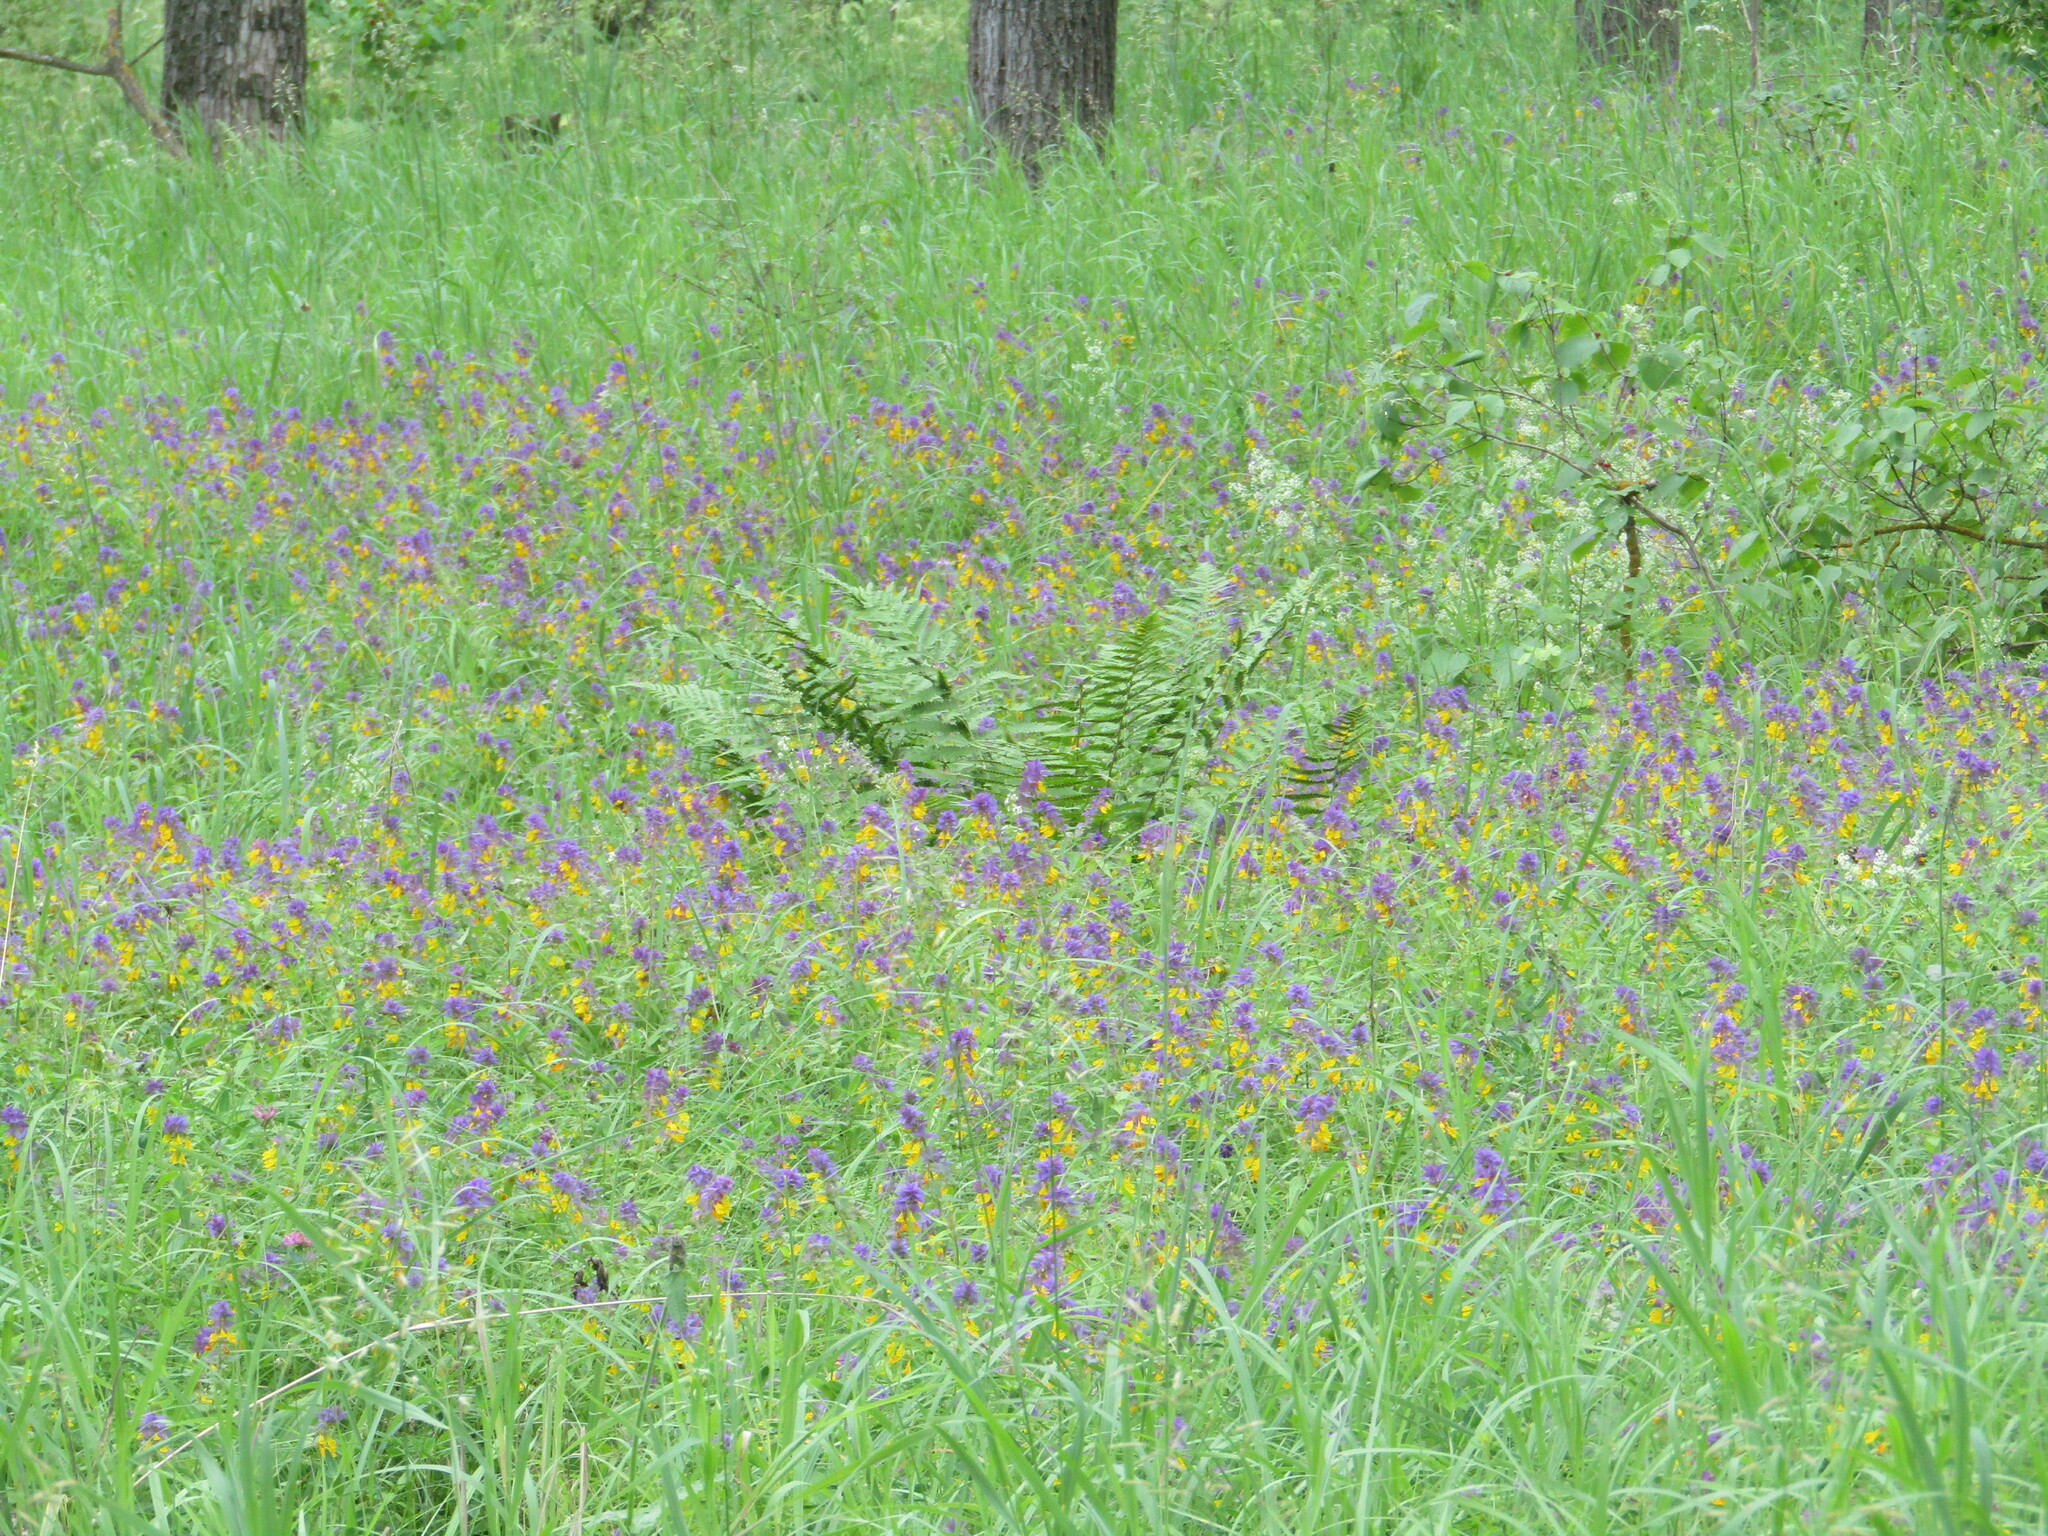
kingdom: Plantae
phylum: Tracheophyta
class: Magnoliopsida
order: Lamiales
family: Orobanchaceae
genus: Melampyrum
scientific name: Melampyrum nemorosum
